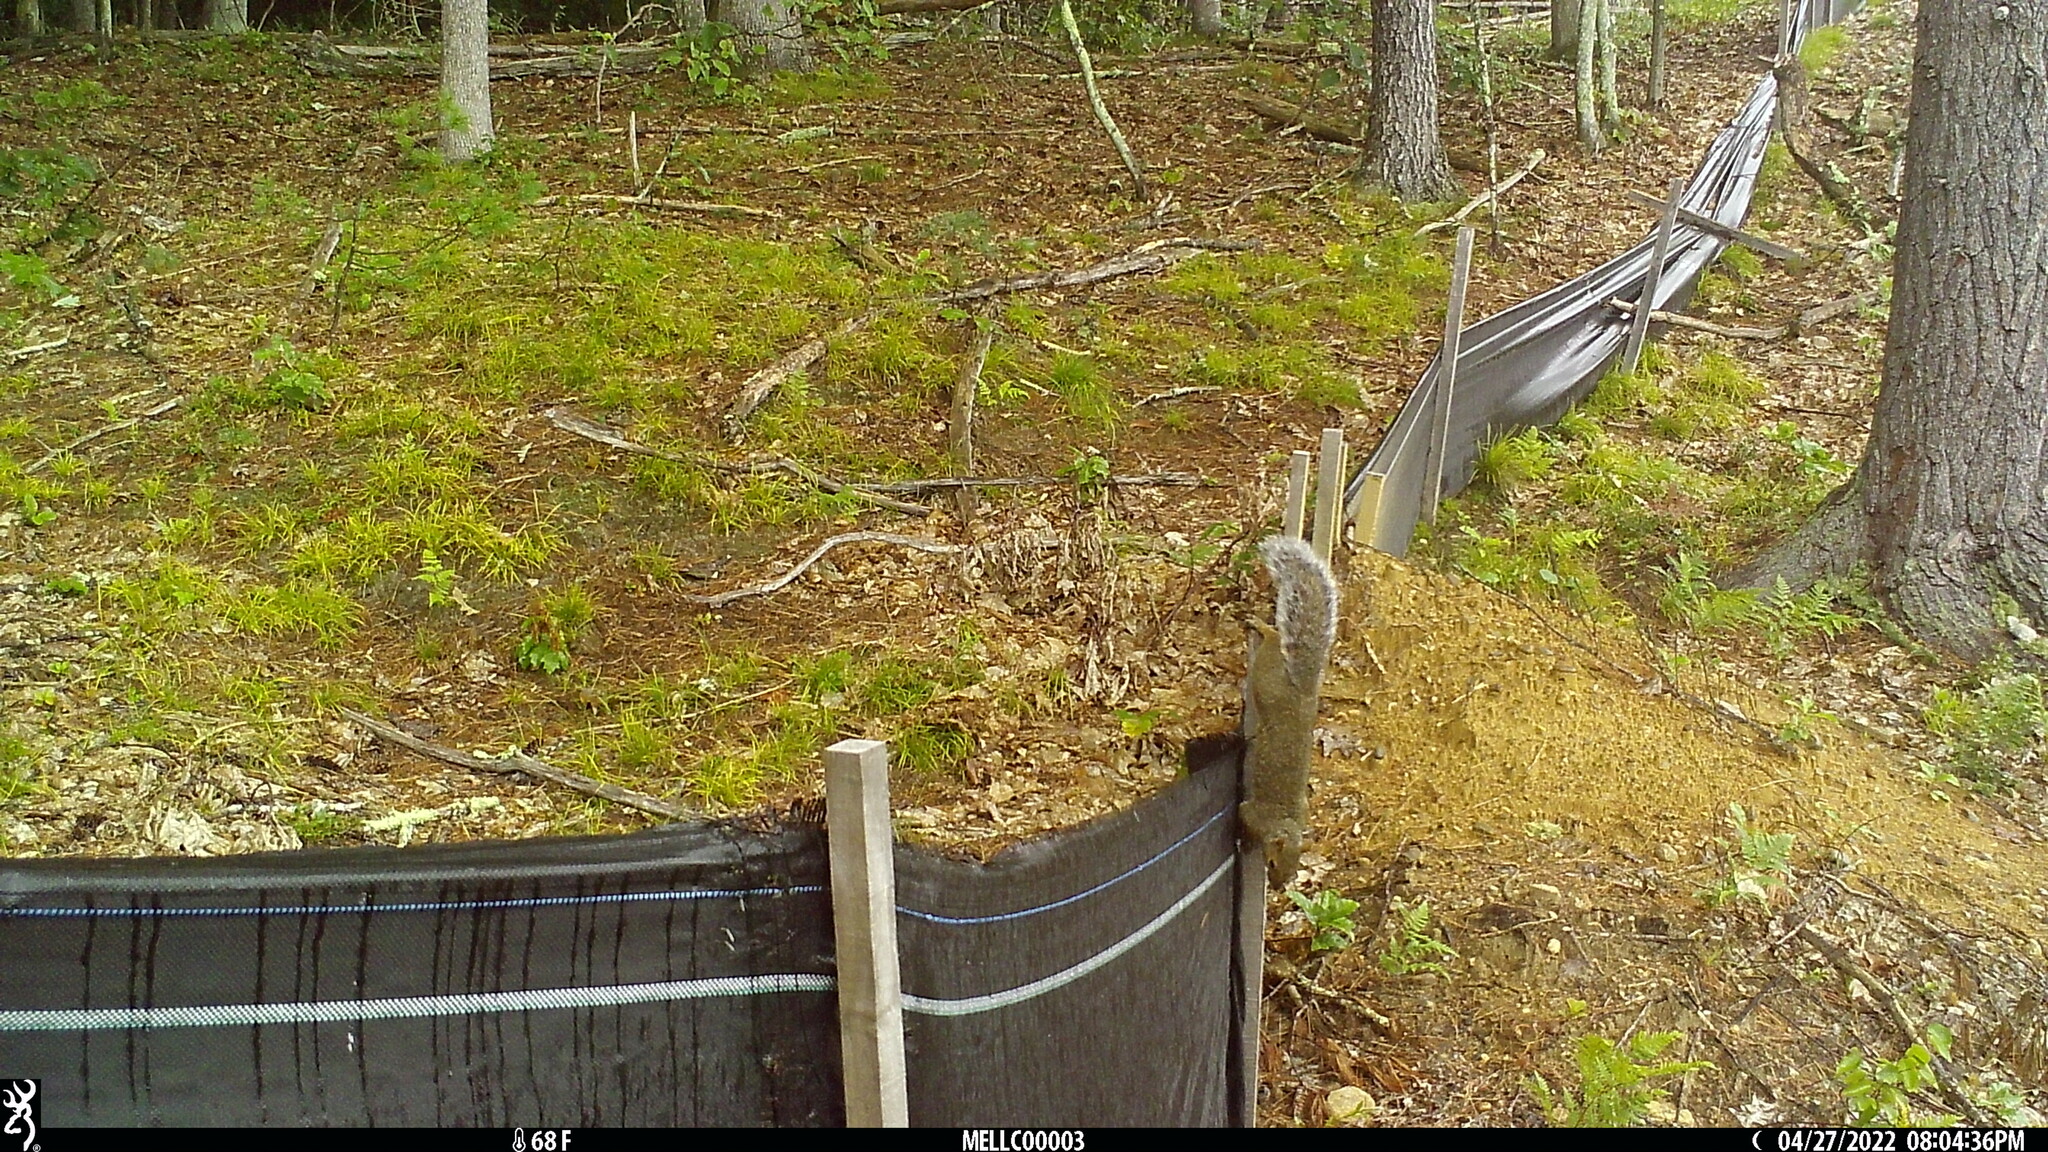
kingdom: Animalia
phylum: Chordata
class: Mammalia
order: Rodentia
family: Sciuridae
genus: Sciurus
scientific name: Sciurus carolinensis
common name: Eastern gray squirrel
